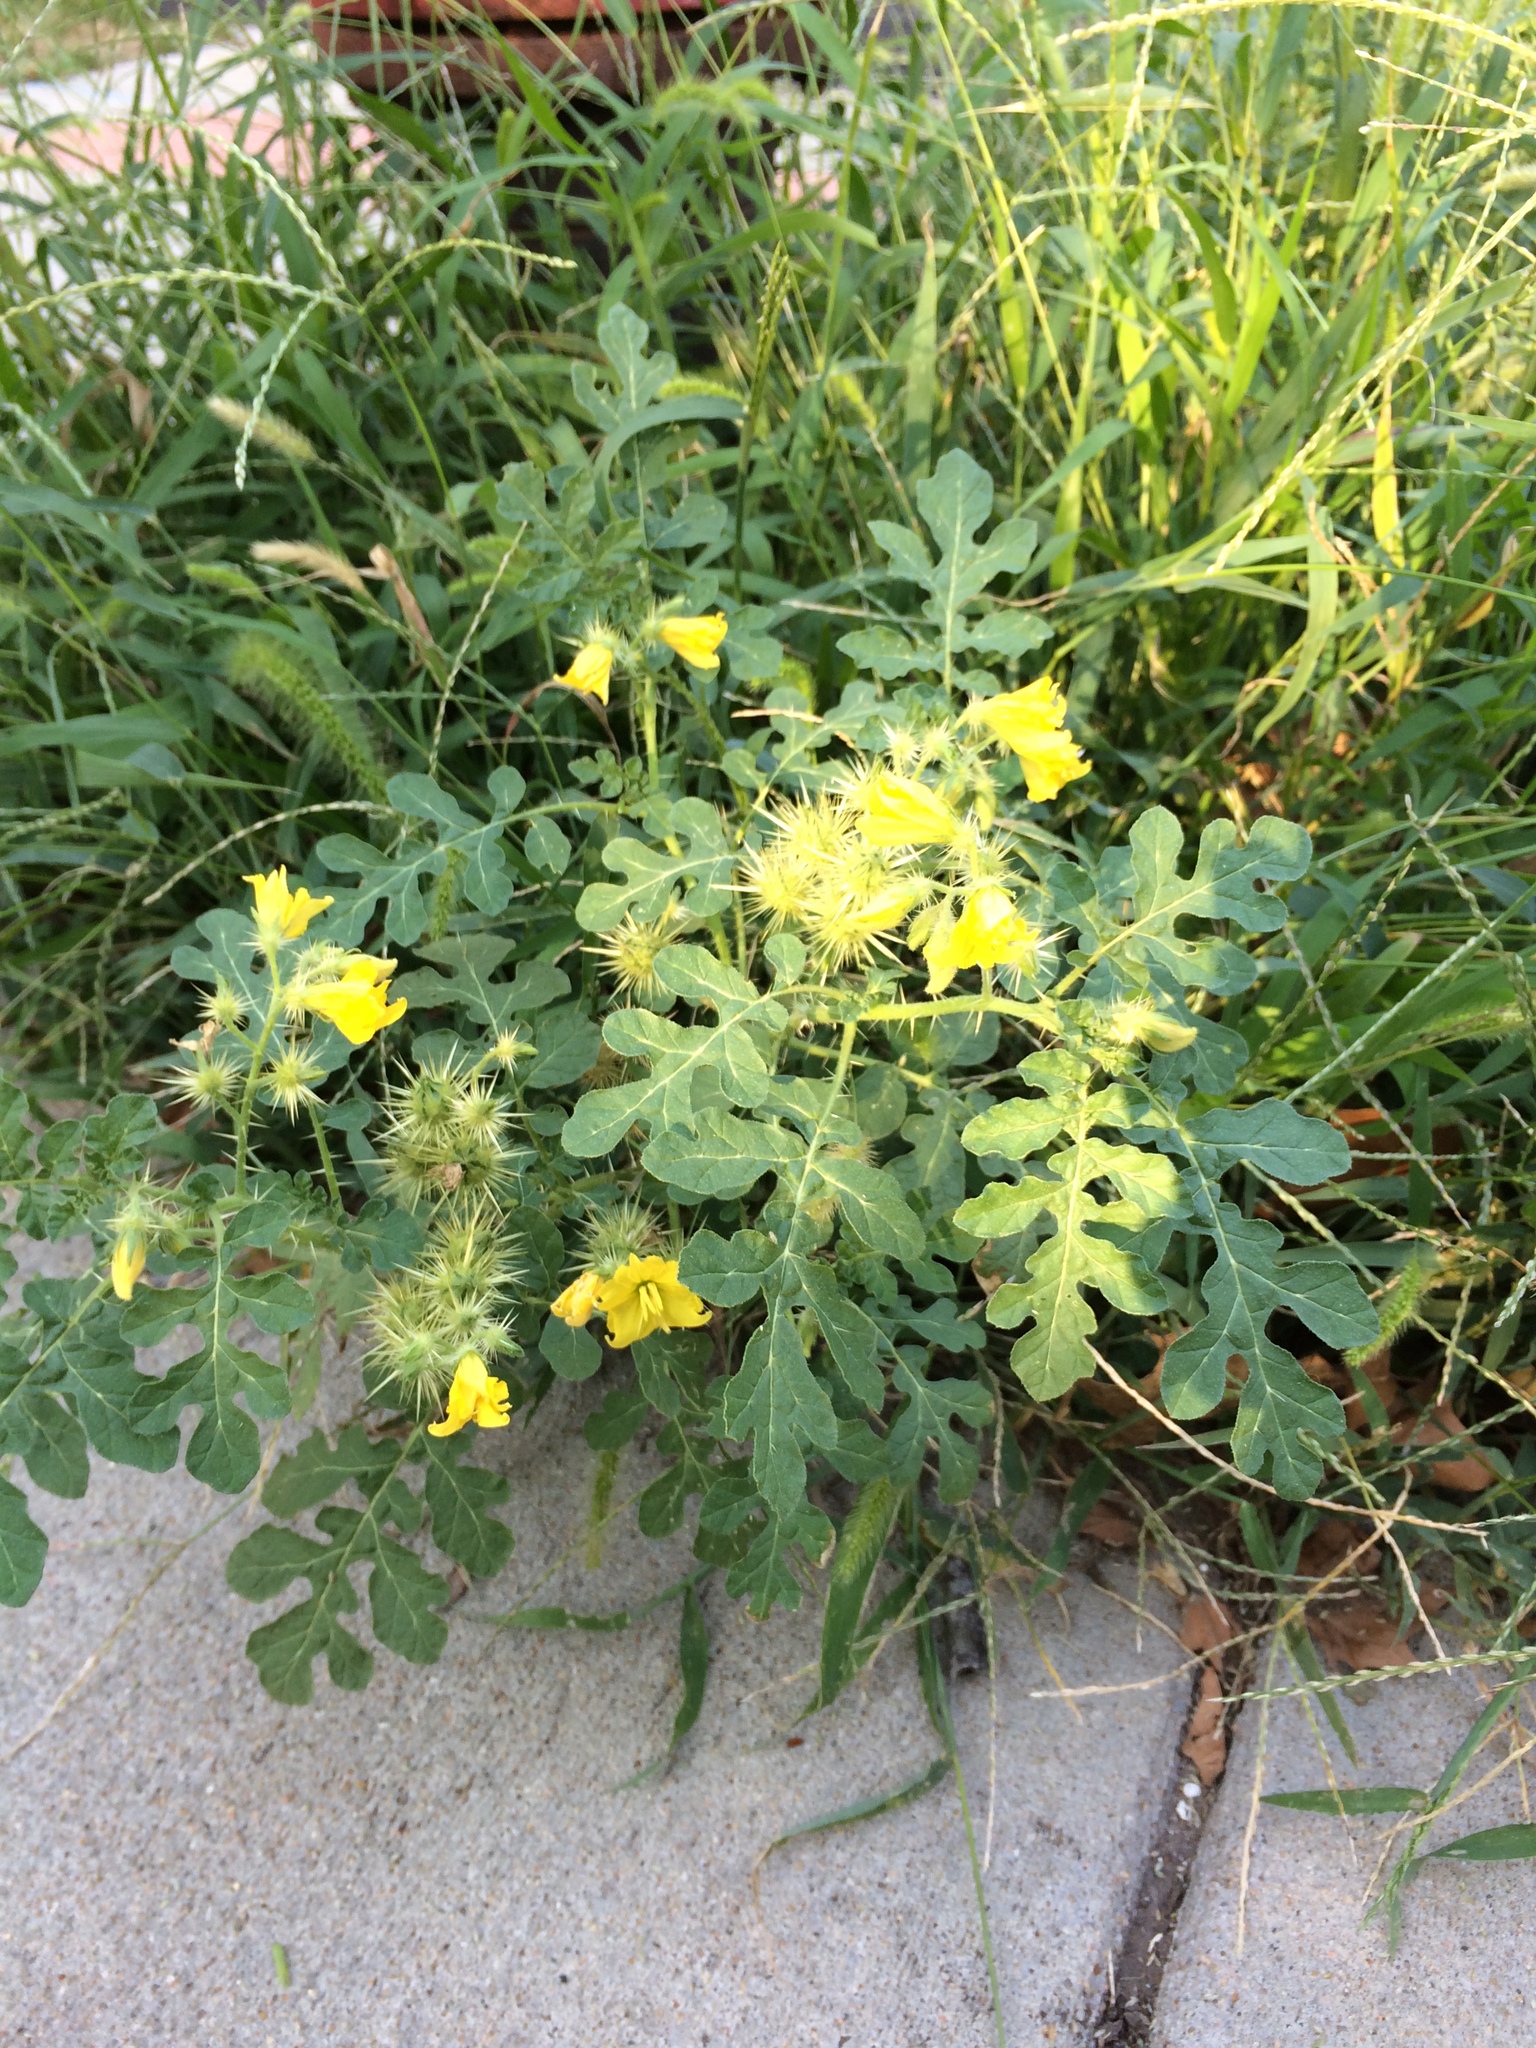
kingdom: Plantae
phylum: Tracheophyta
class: Magnoliopsida
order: Solanales
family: Solanaceae
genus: Solanum
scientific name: Solanum angustifolium
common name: Buffalobur nightshade
